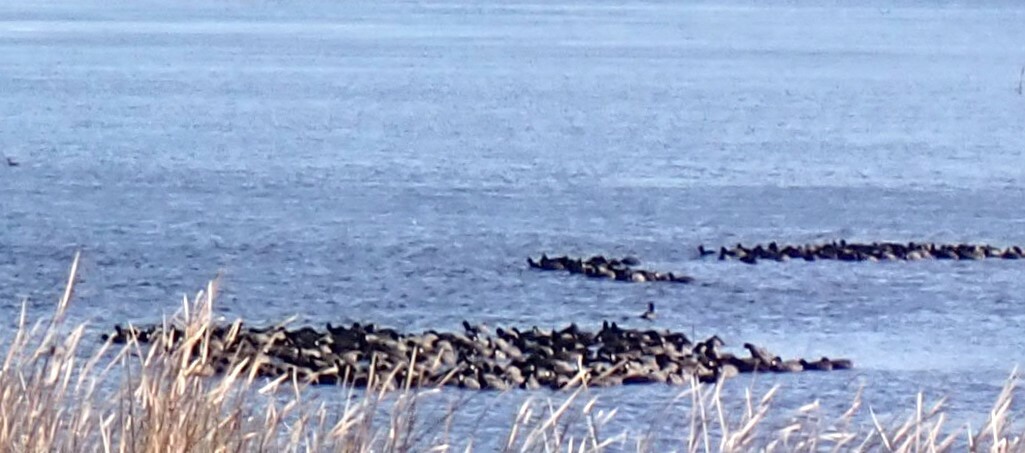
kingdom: Animalia
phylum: Chordata
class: Aves
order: Gruiformes
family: Rallidae
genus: Fulica
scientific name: Fulica americana
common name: American coot
